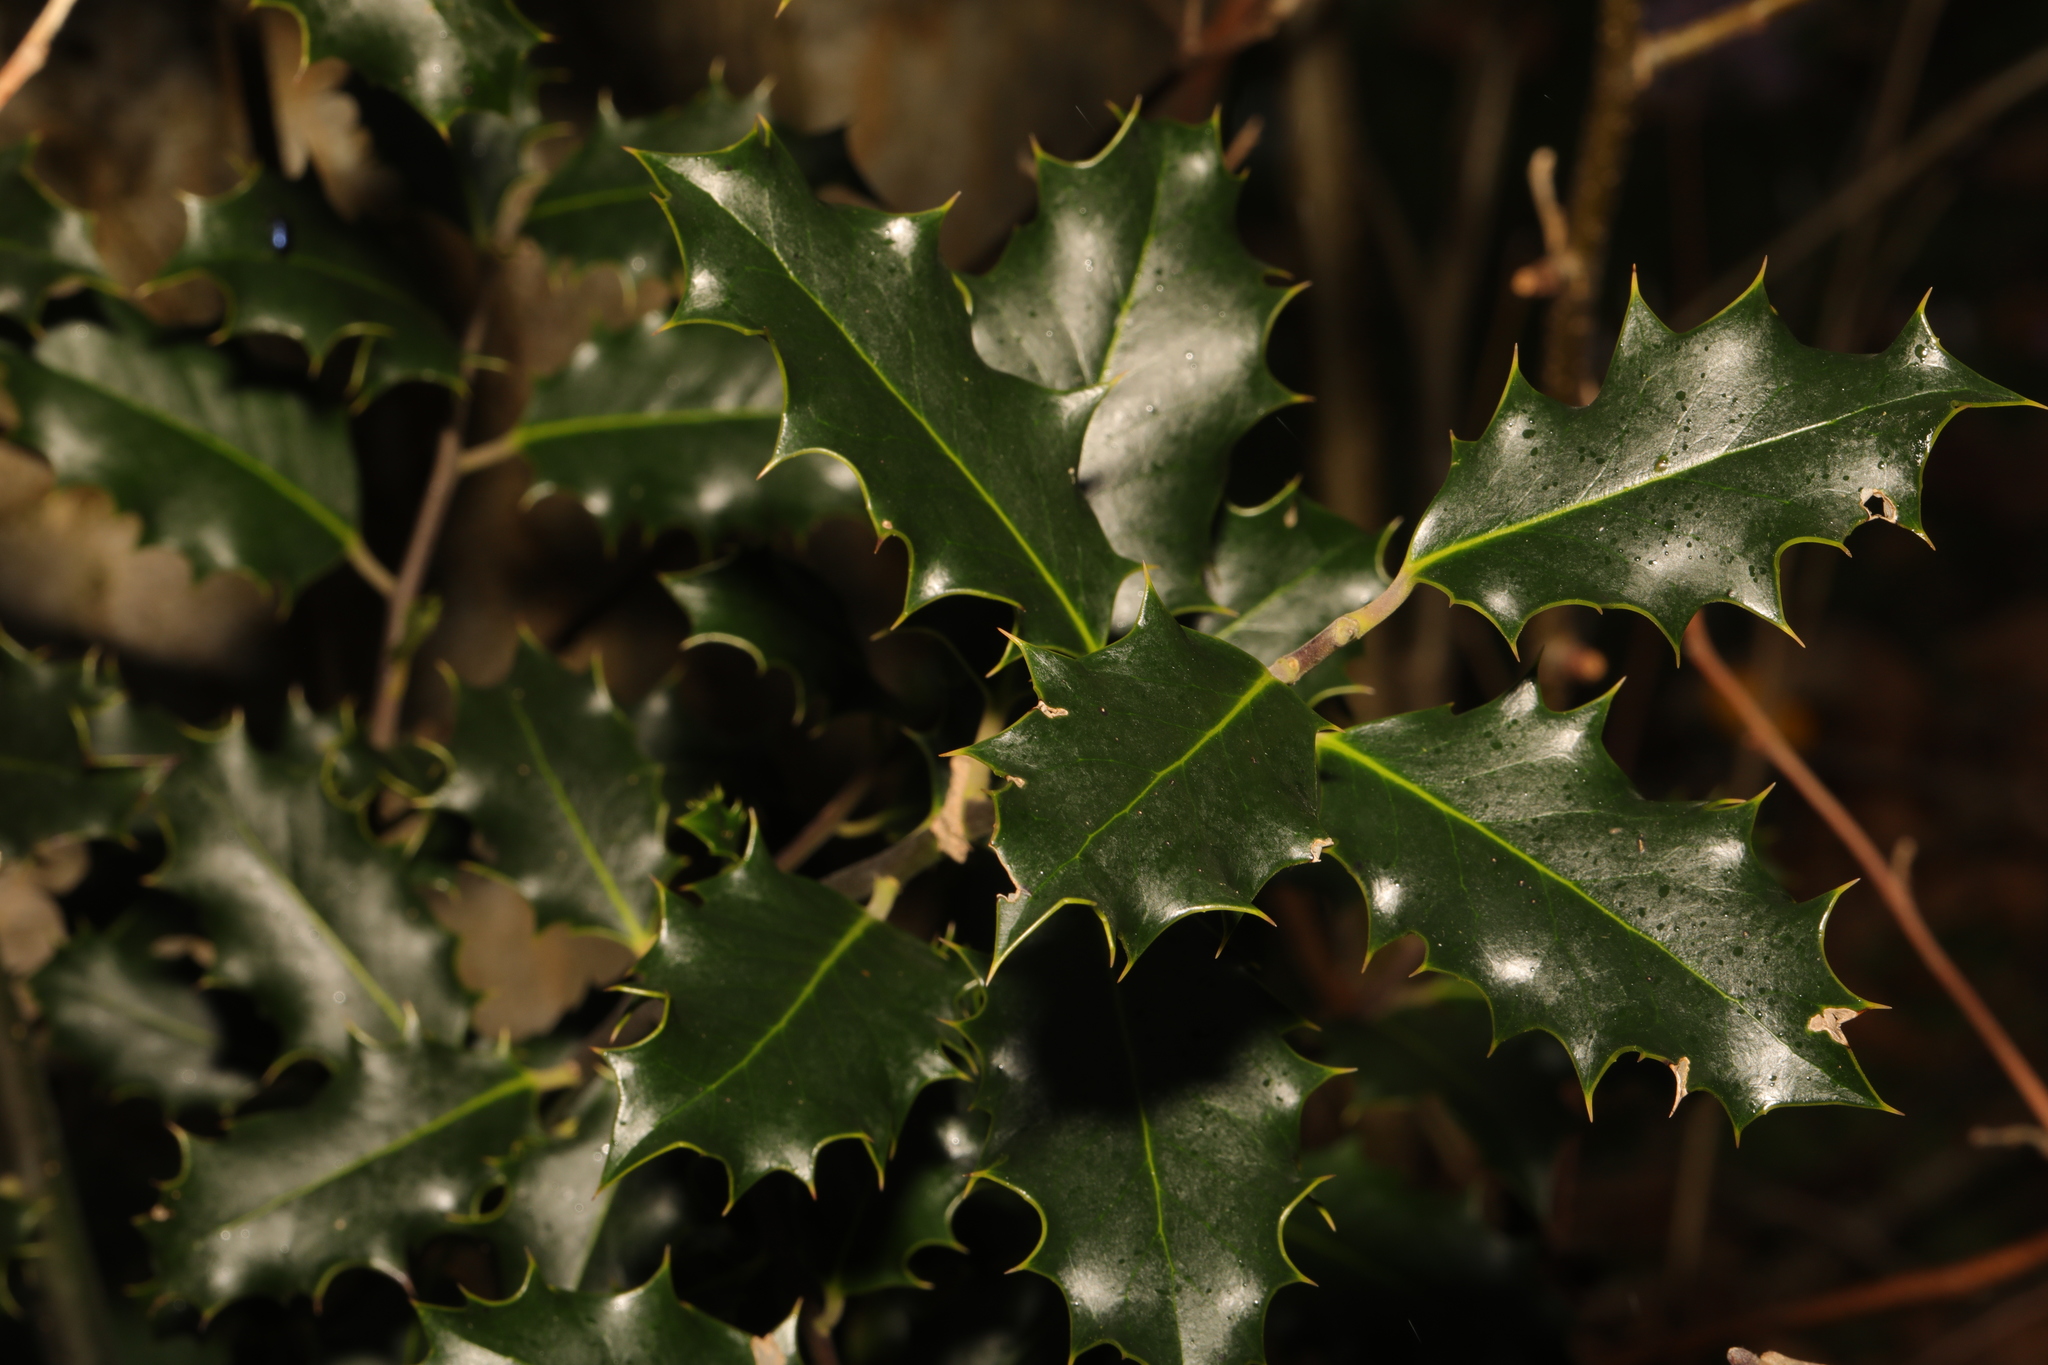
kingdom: Plantae
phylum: Tracheophyta
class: Magnoliopsida
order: Aquifoliales
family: Aquifoliaceae
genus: Ilex
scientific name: Ilex aquifolium
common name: English holly
